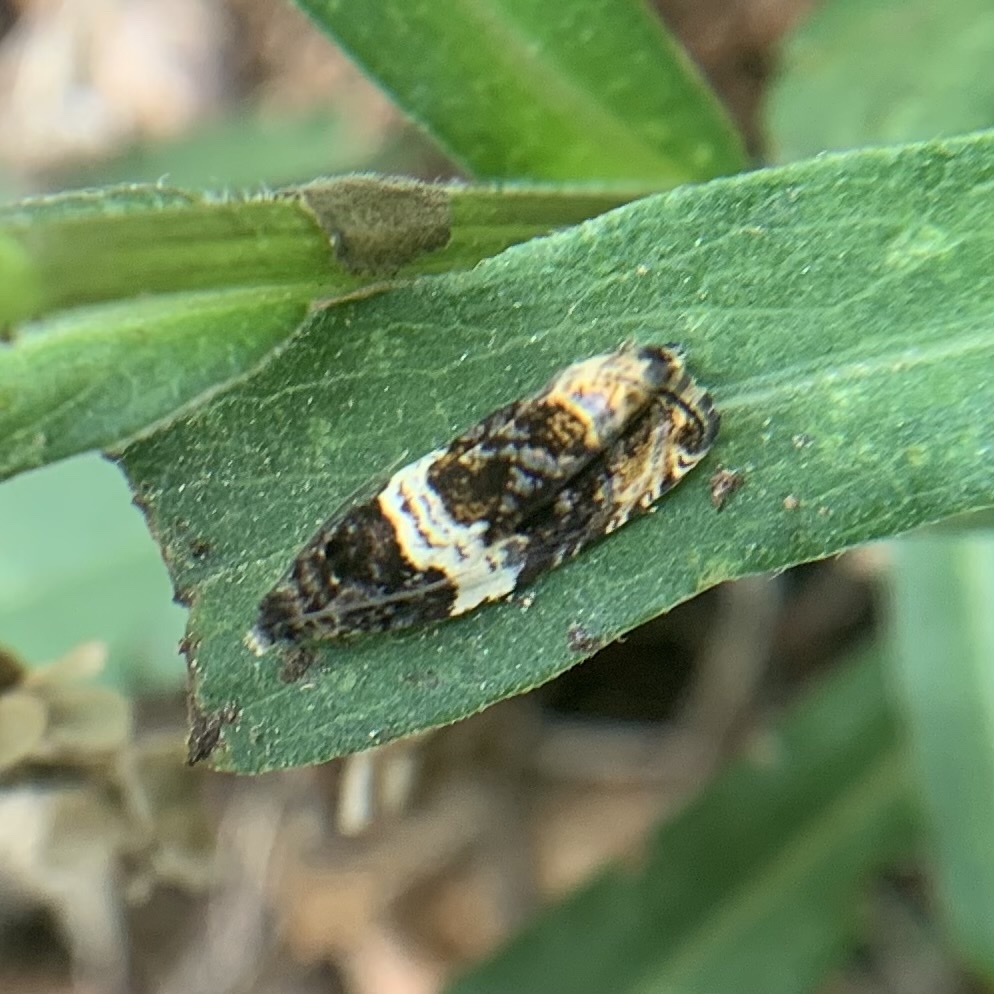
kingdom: Animalia
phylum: Arthropoda
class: Insecta
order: Lepidoptera
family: Tortricidae
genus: Olethreutes
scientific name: Olethreutes fasciatana
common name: Banded olethreutes moth
